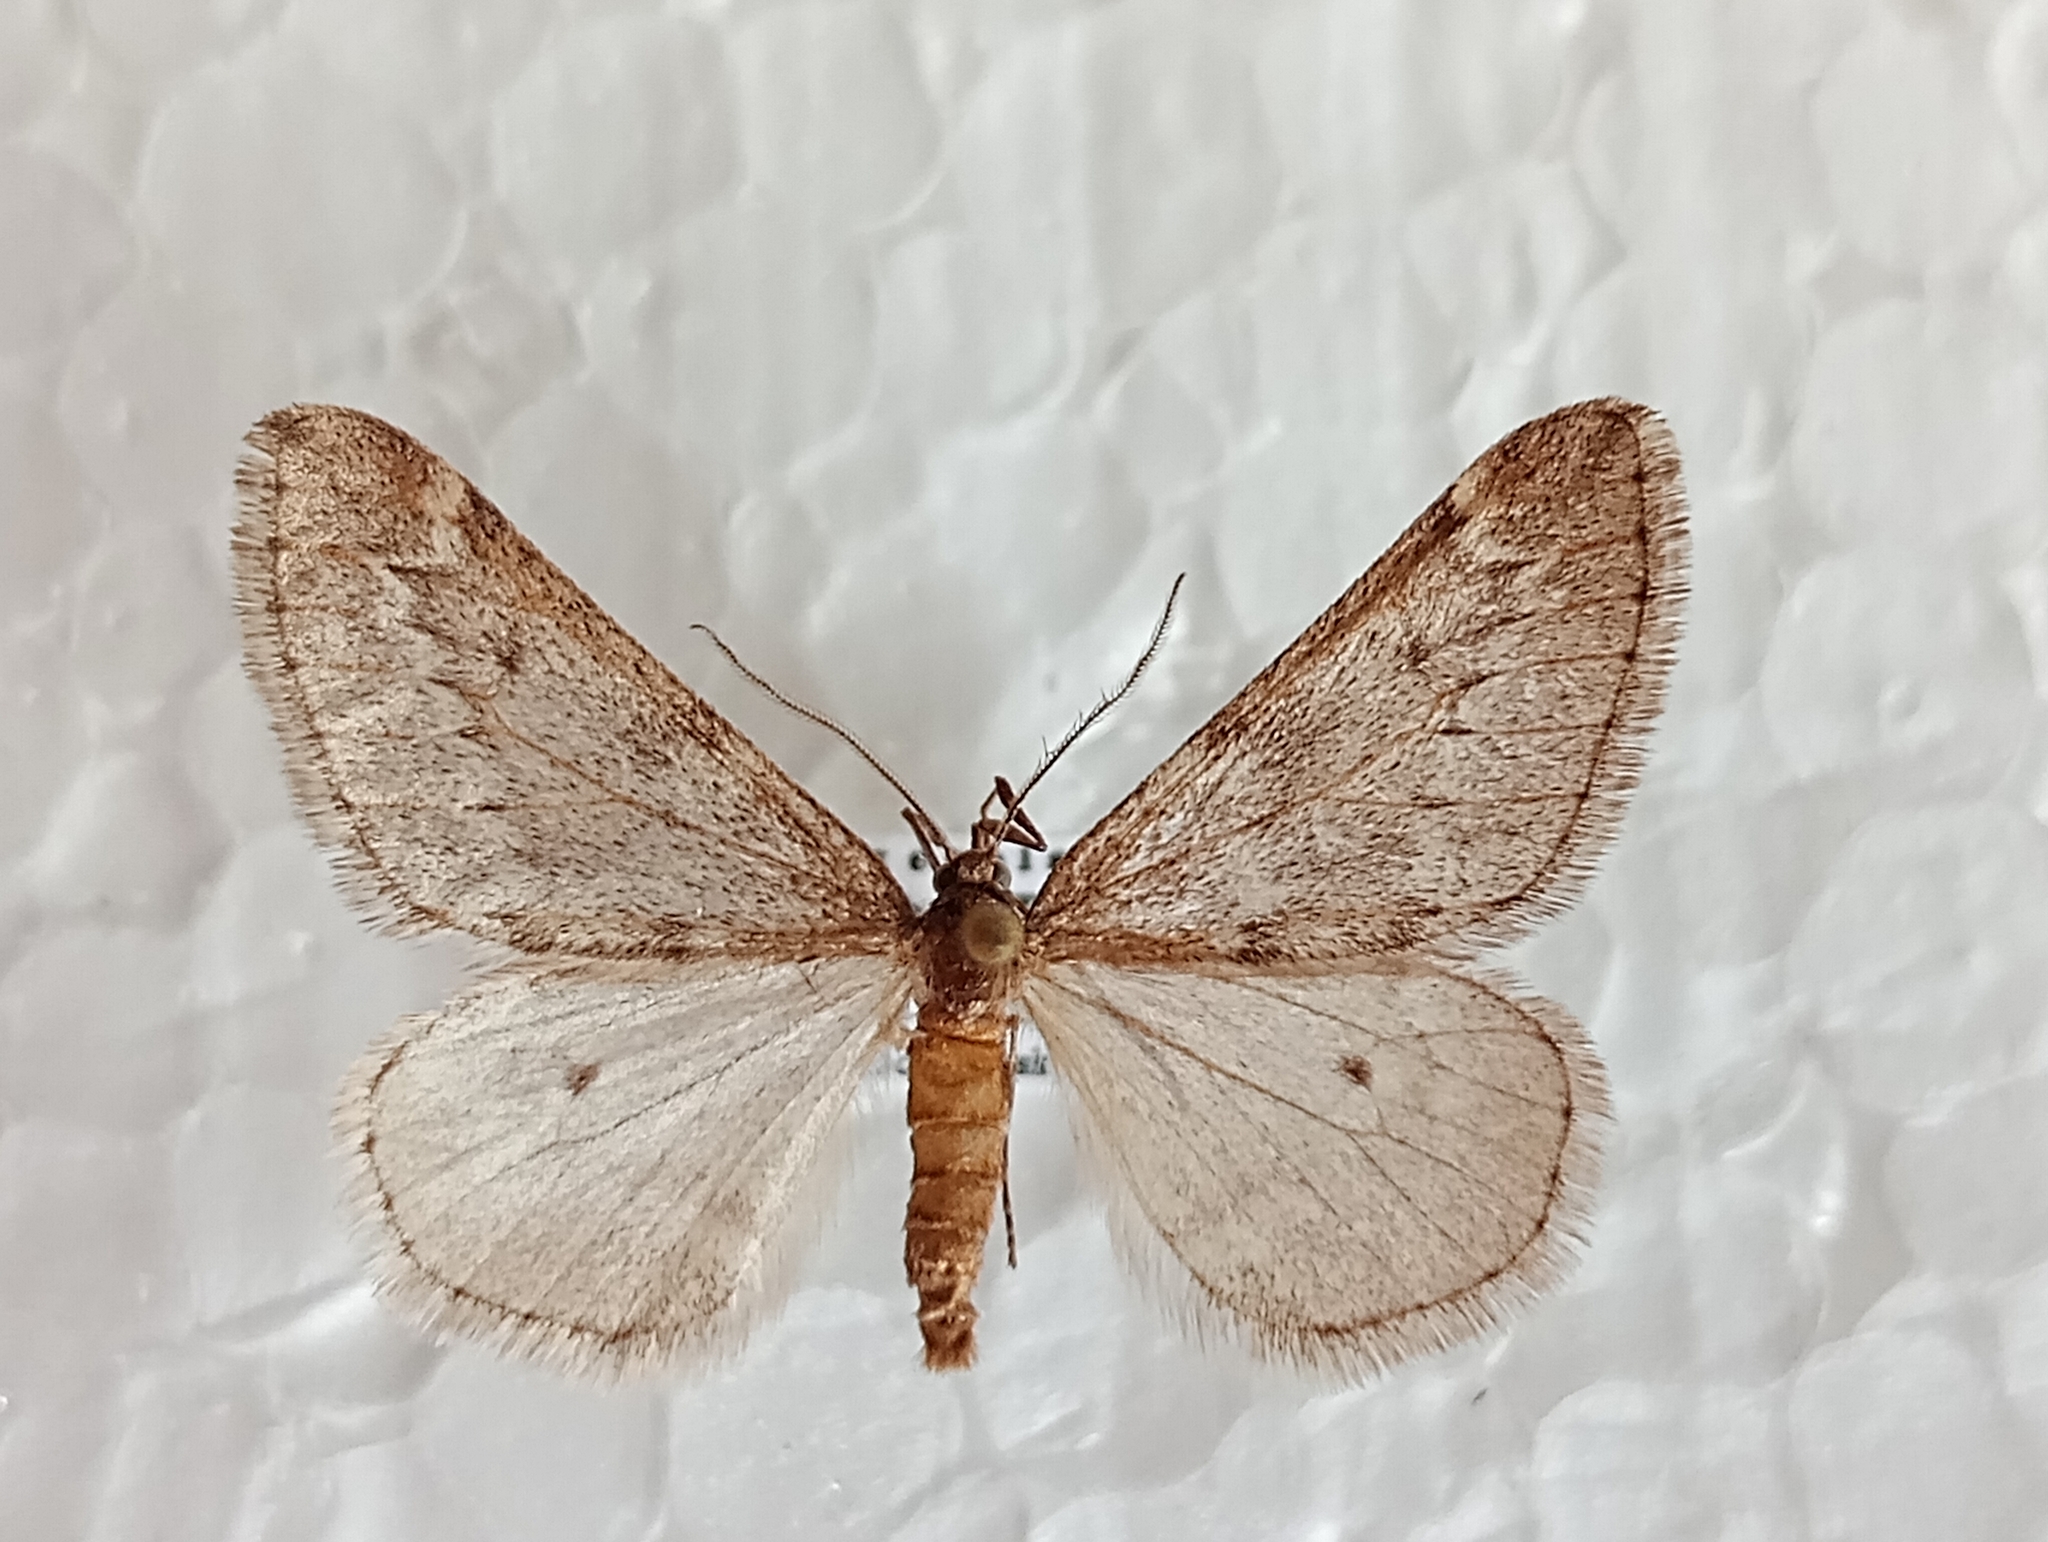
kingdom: Animalia
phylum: Arthropoda
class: Insecta
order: Lepidoptera
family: Geometridae
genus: Alsophila
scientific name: Alsophila aescularia
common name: March moth
